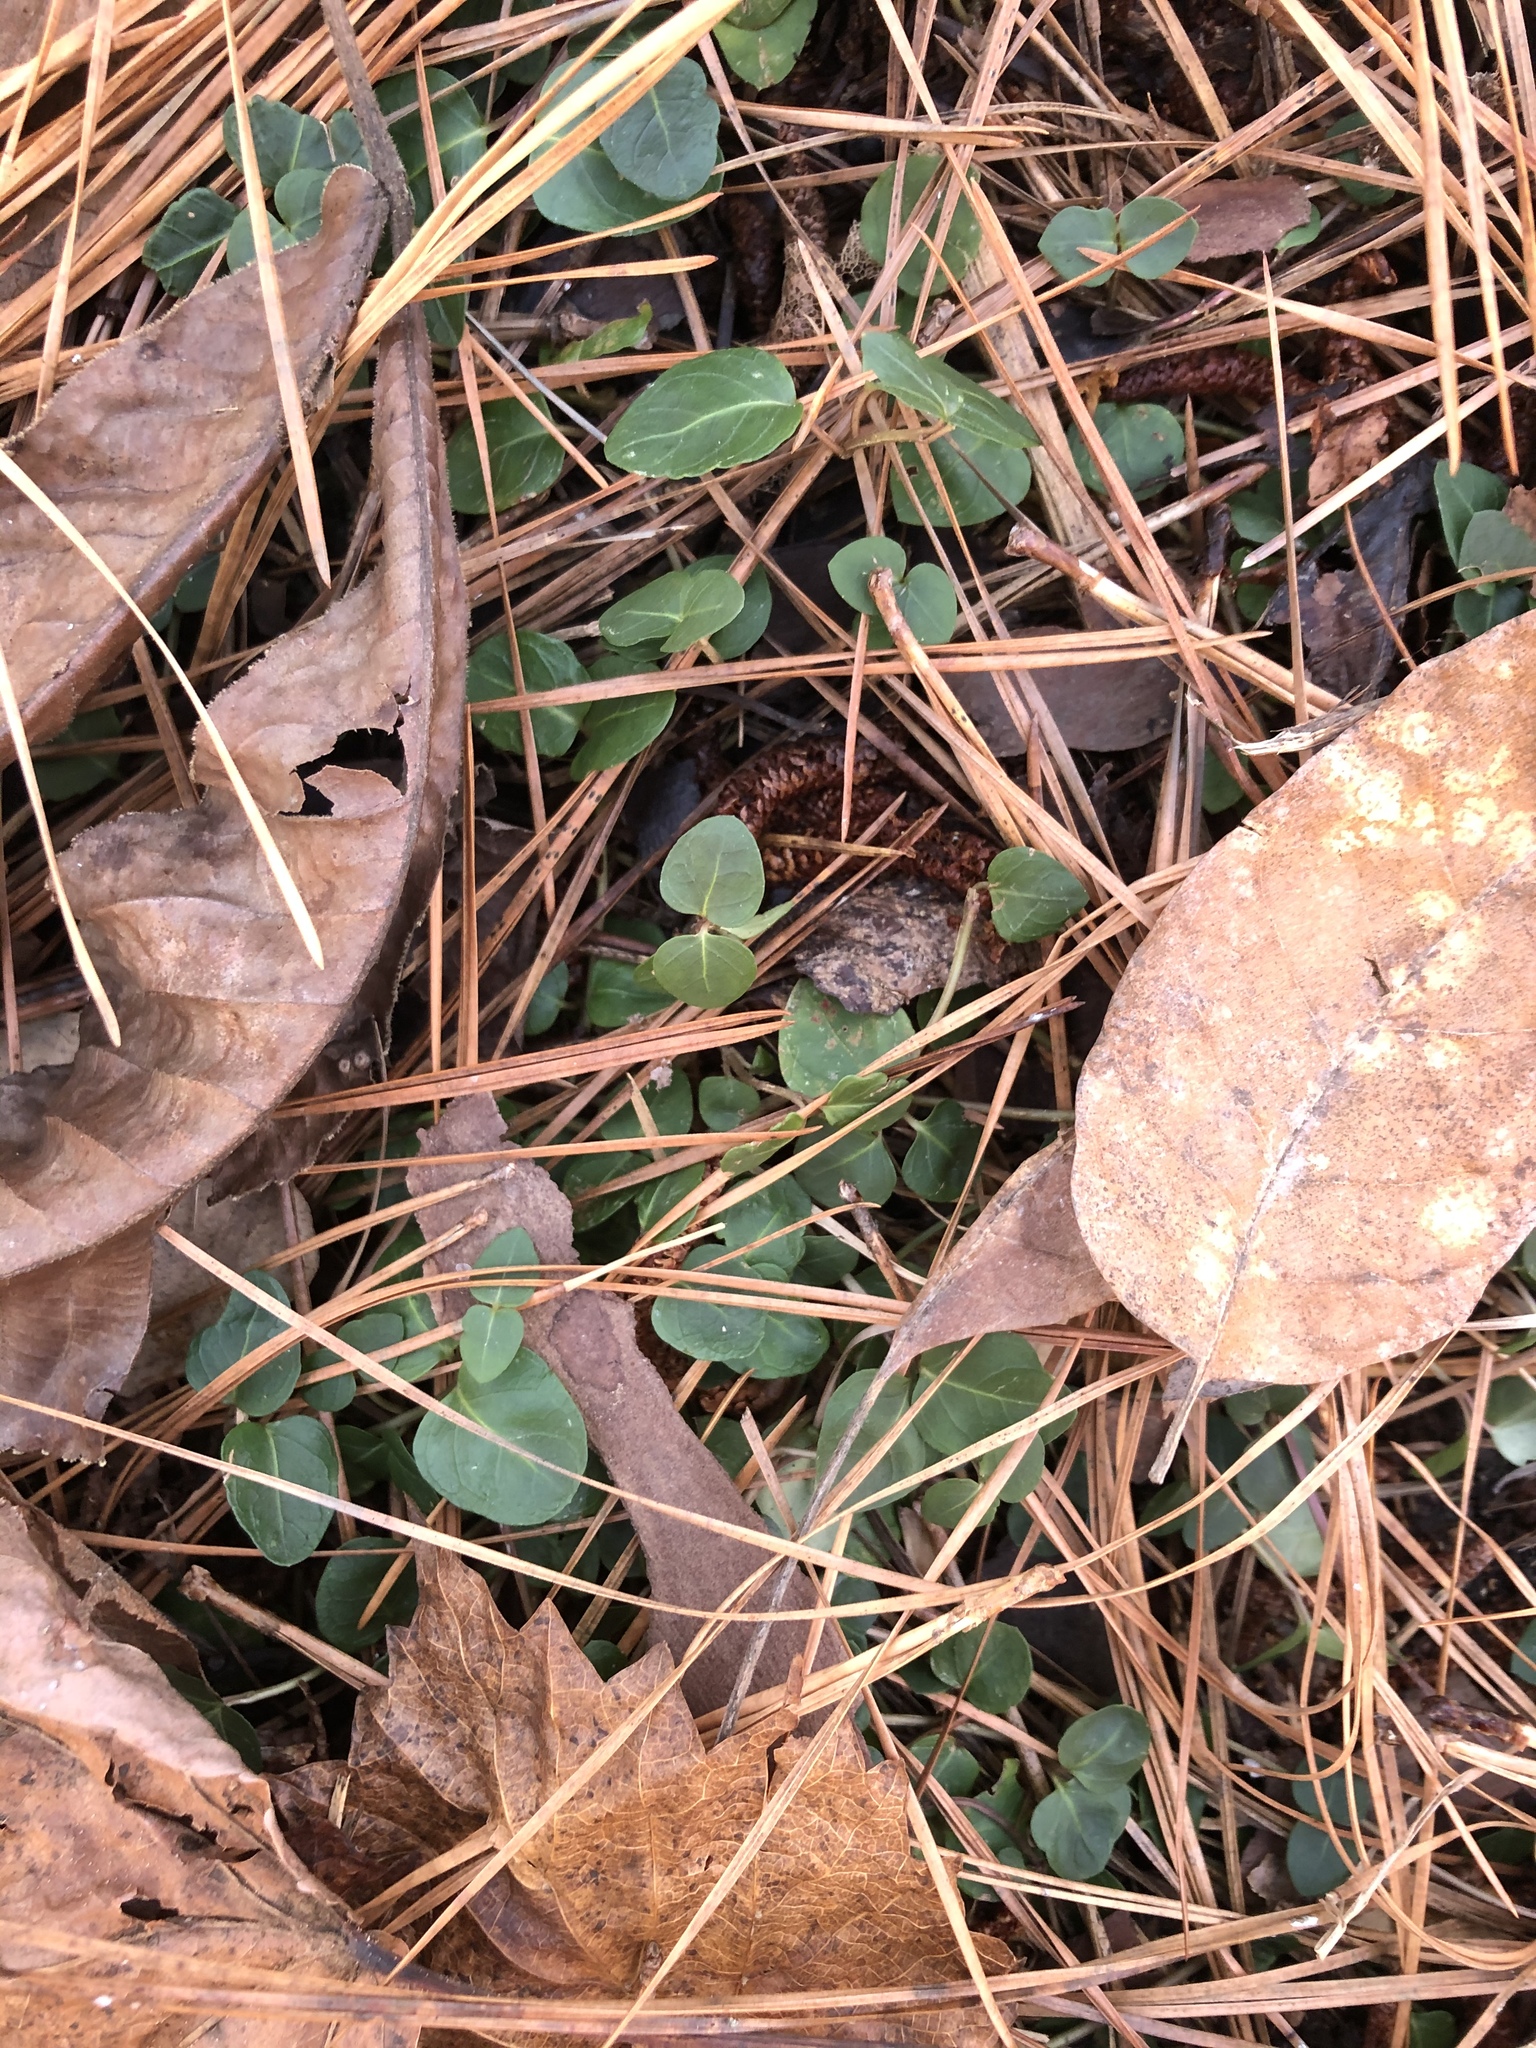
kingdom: Plantae
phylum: Tracheophyta
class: Magnoliopsida
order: Gentianales
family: Rubiaceae
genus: Mitchella
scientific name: Mitchella repens
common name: Partridge-berry
